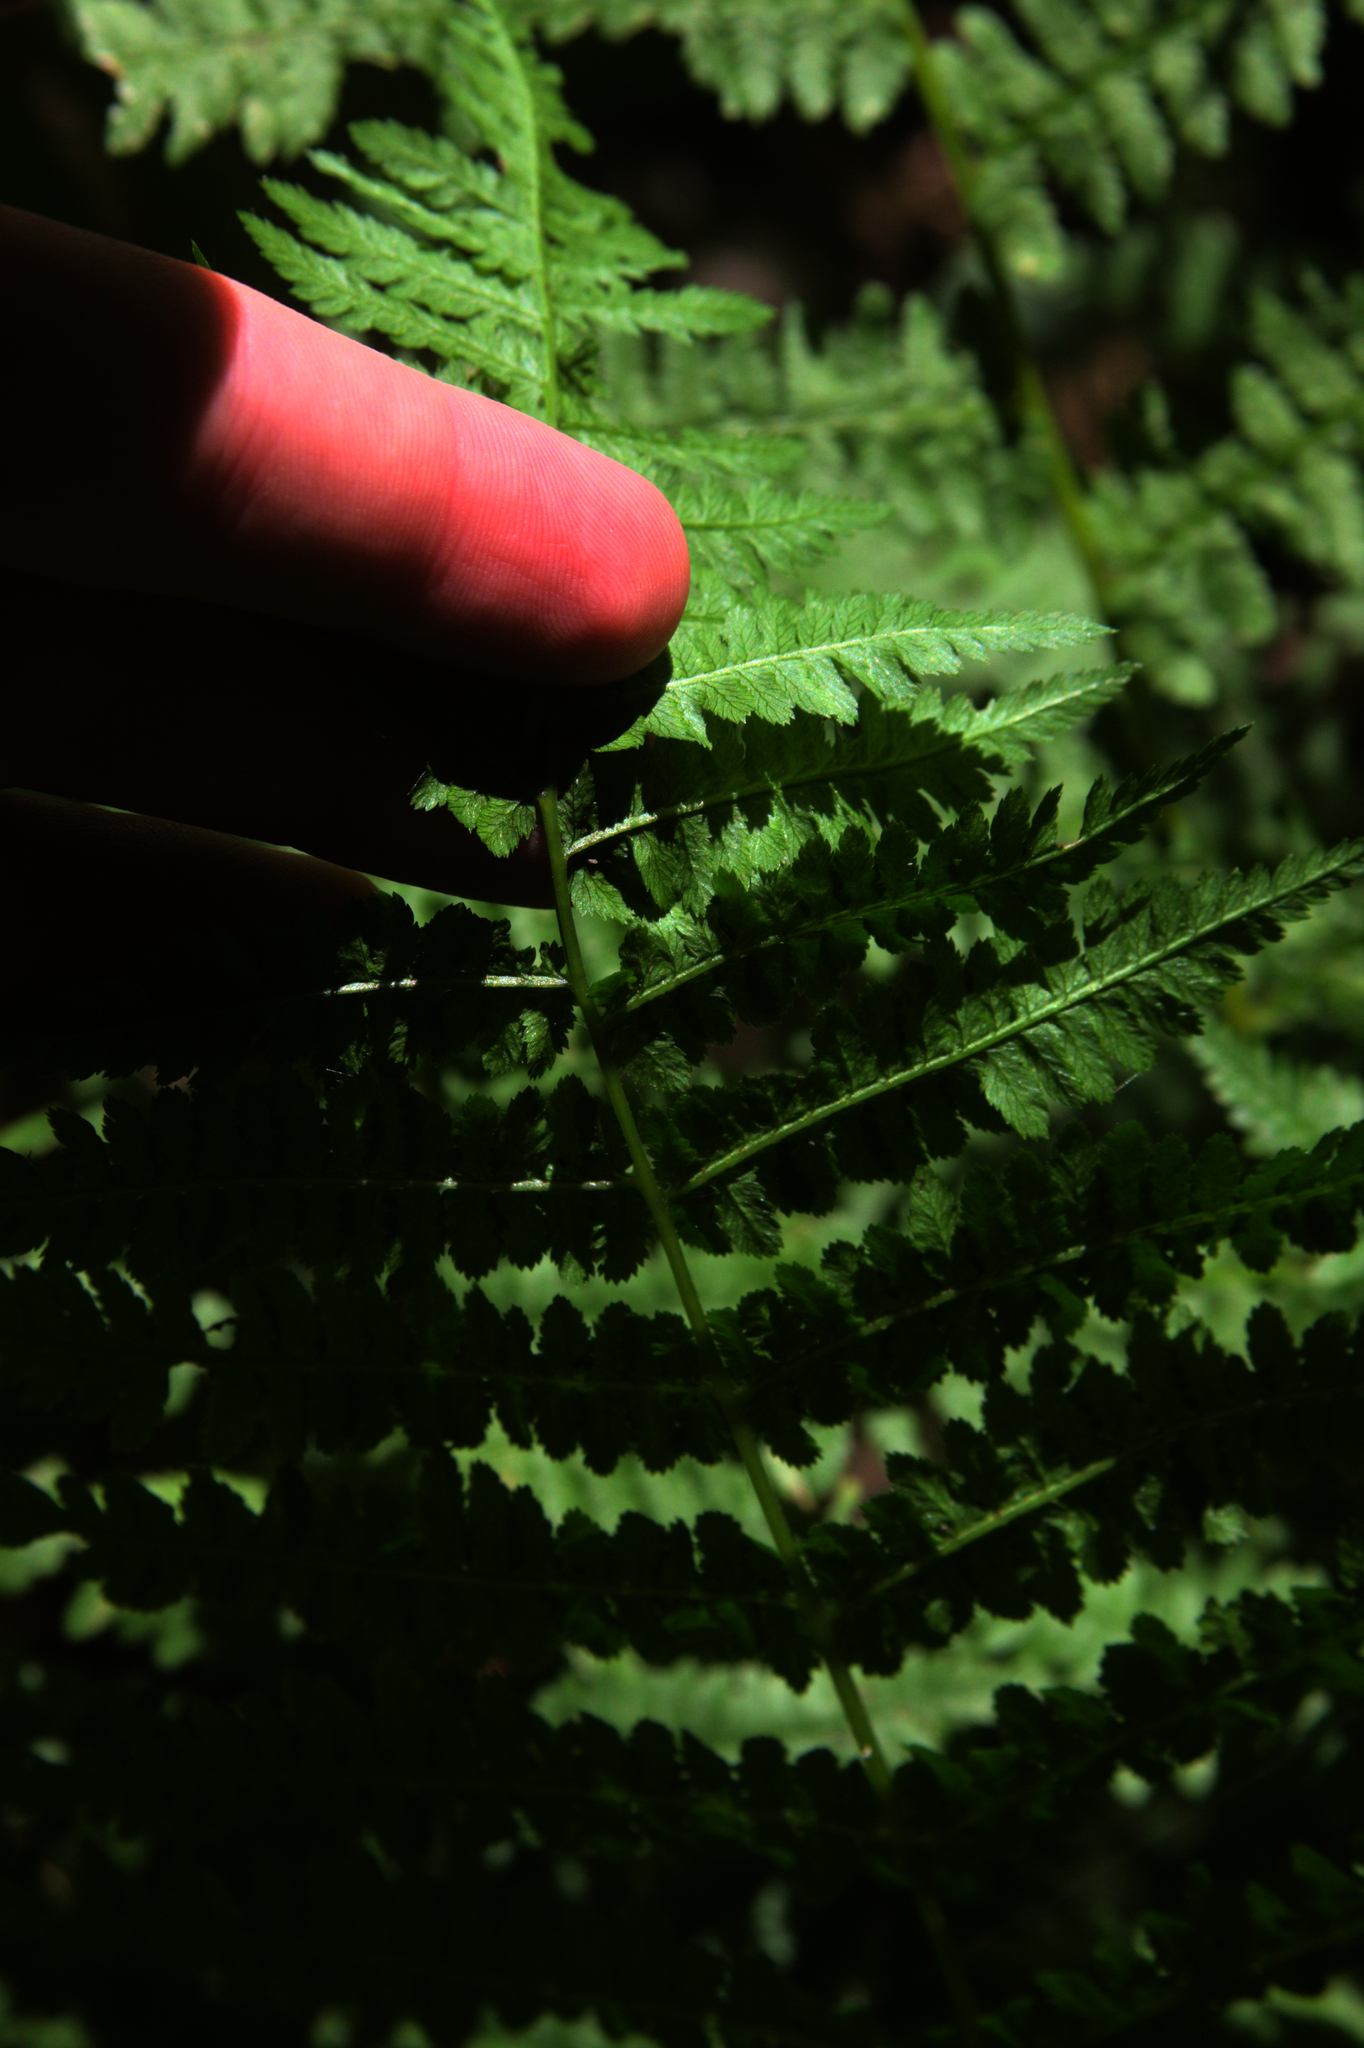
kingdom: Plantae
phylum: Tracheophyta
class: Polypodiopsida
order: Polypodiales
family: Athyriaceae
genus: Athyrium
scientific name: Athyrium angustum
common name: Northern lady fern
